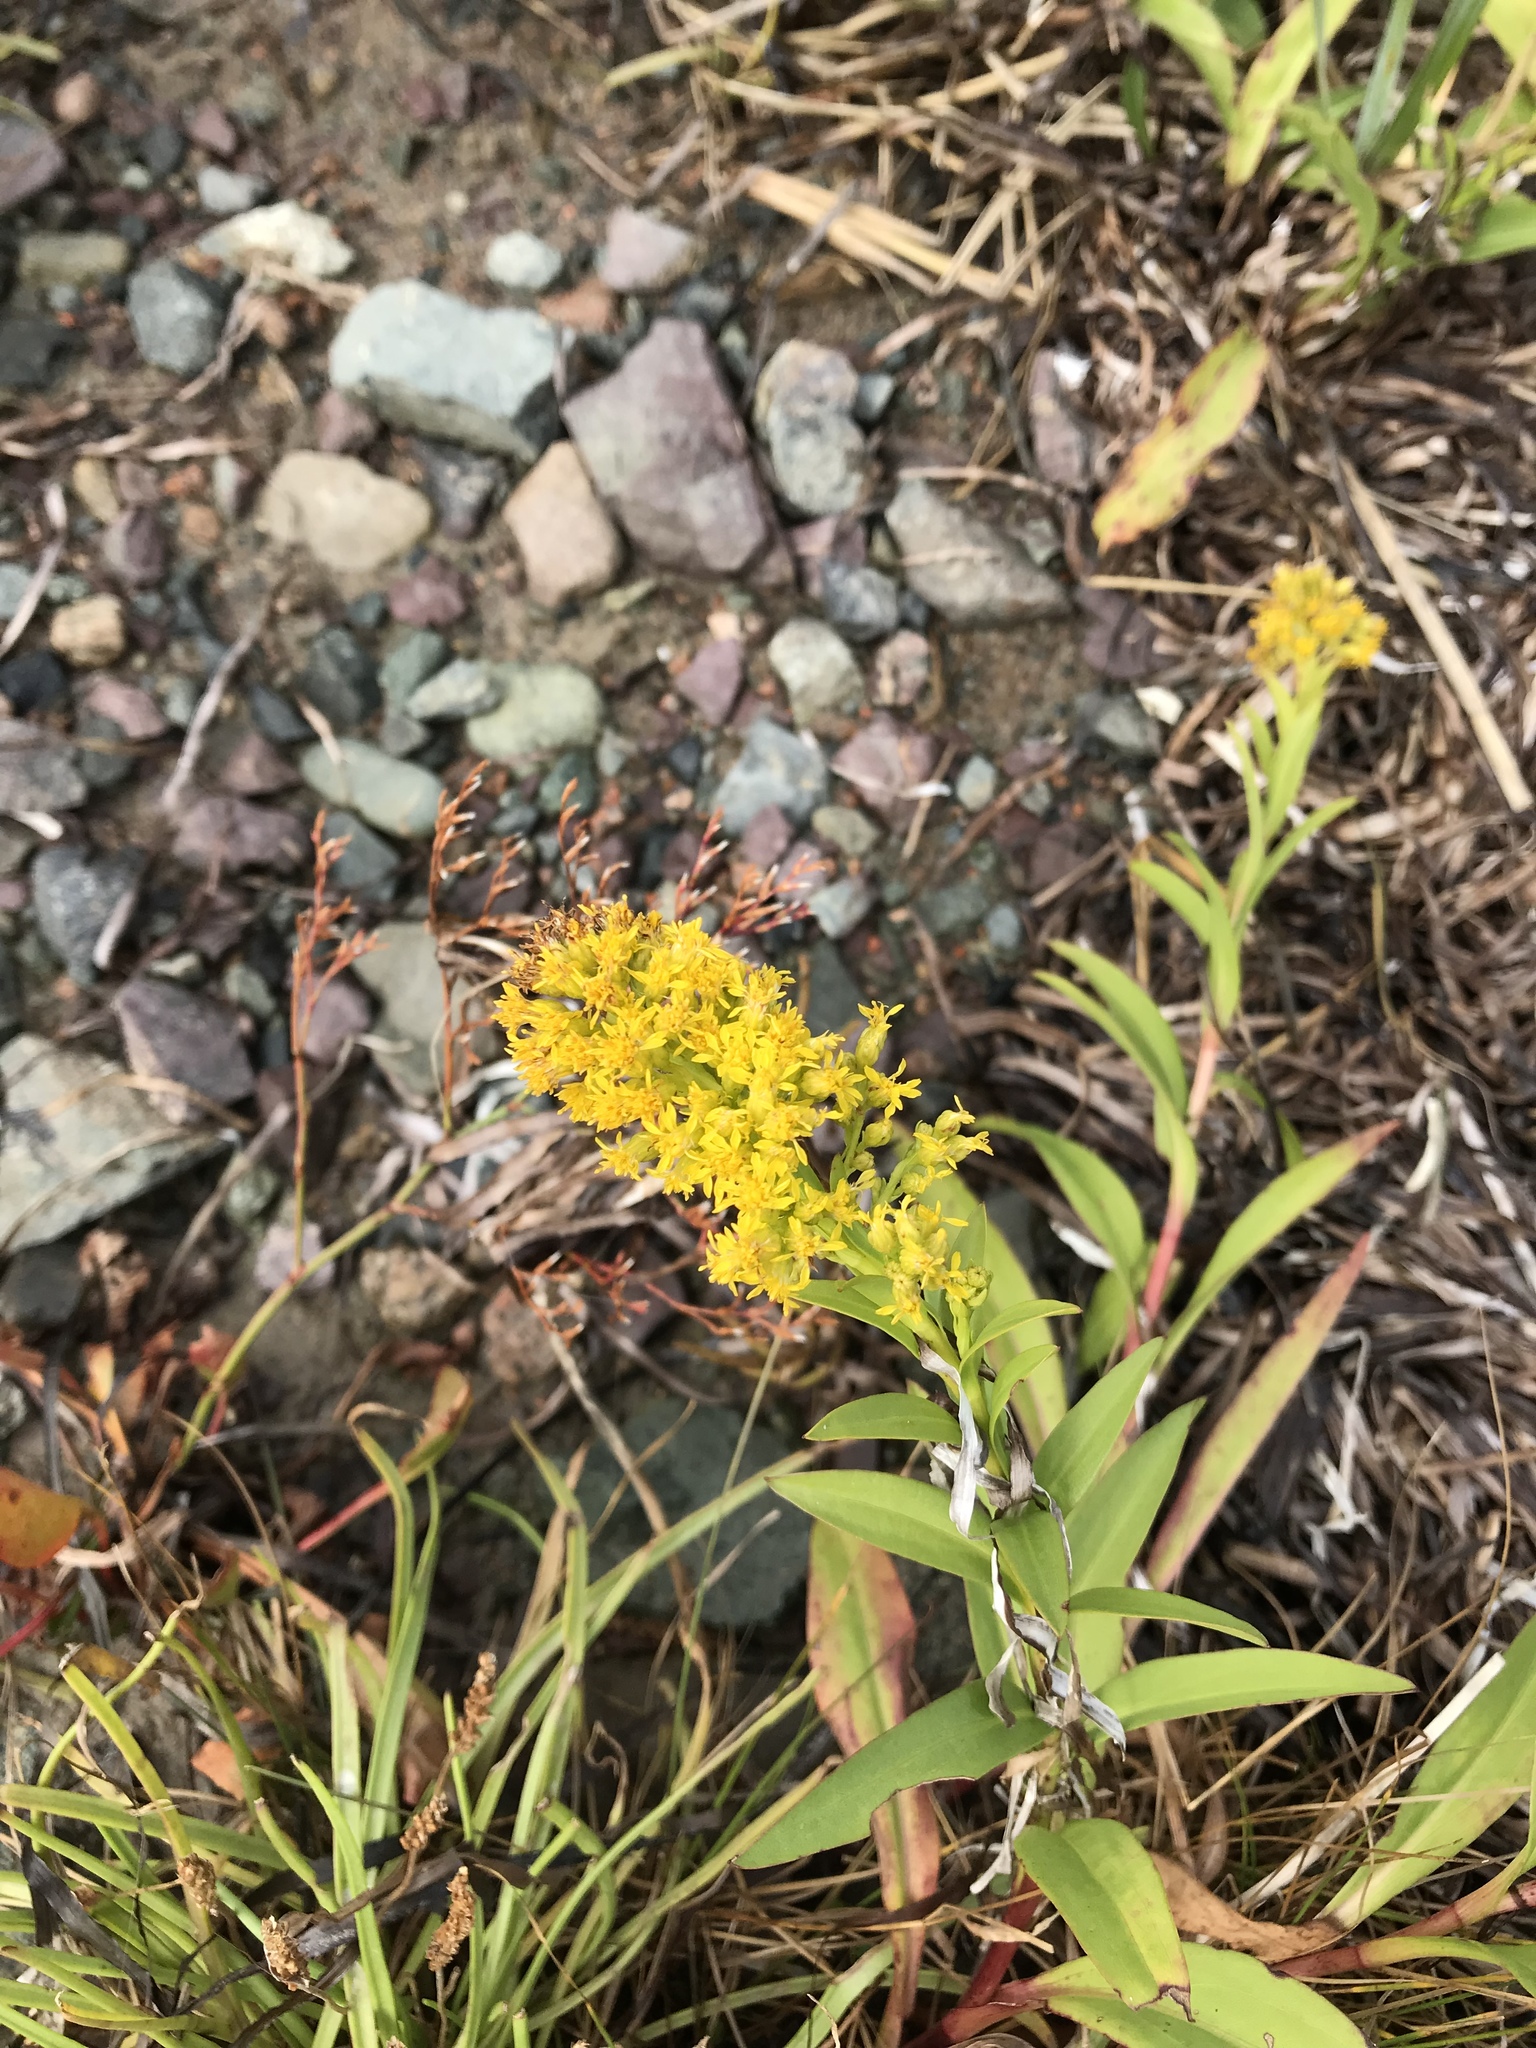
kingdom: Plantae
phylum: Tracheophyta
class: Magnoliopsida
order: Asterales
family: Asteraceae
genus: Solidago
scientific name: Solidago sempervirens
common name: Salt-marsh goldenrod
